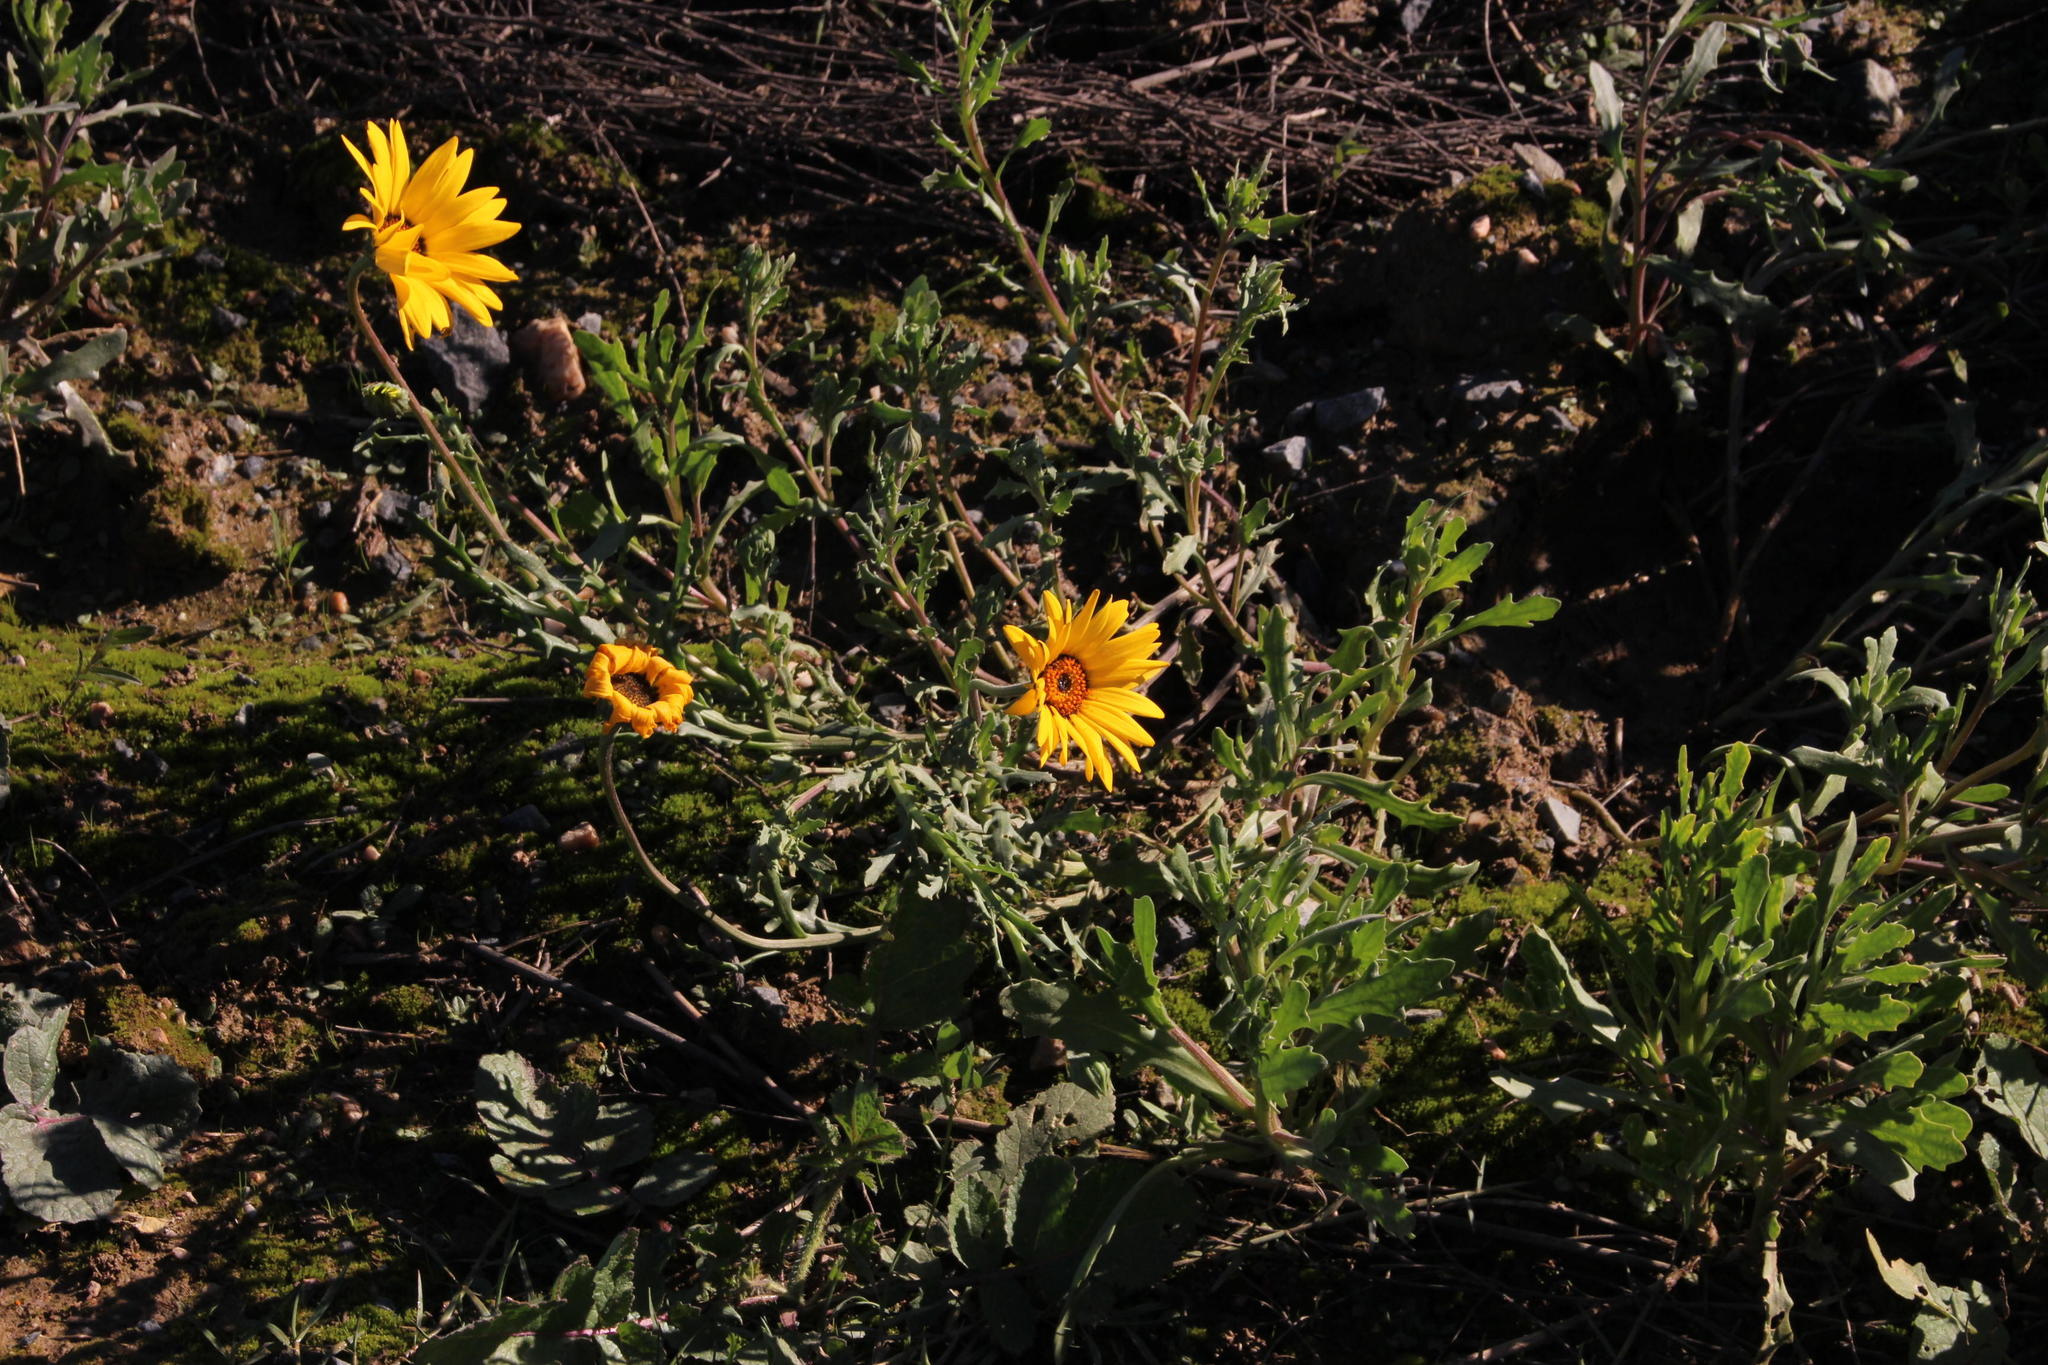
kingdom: Plantae
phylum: Tracheophyta
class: Magnoliopsida
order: Asterales
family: Asteraceae
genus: Dimorphotheca
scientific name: Dimorphotheca tragus
